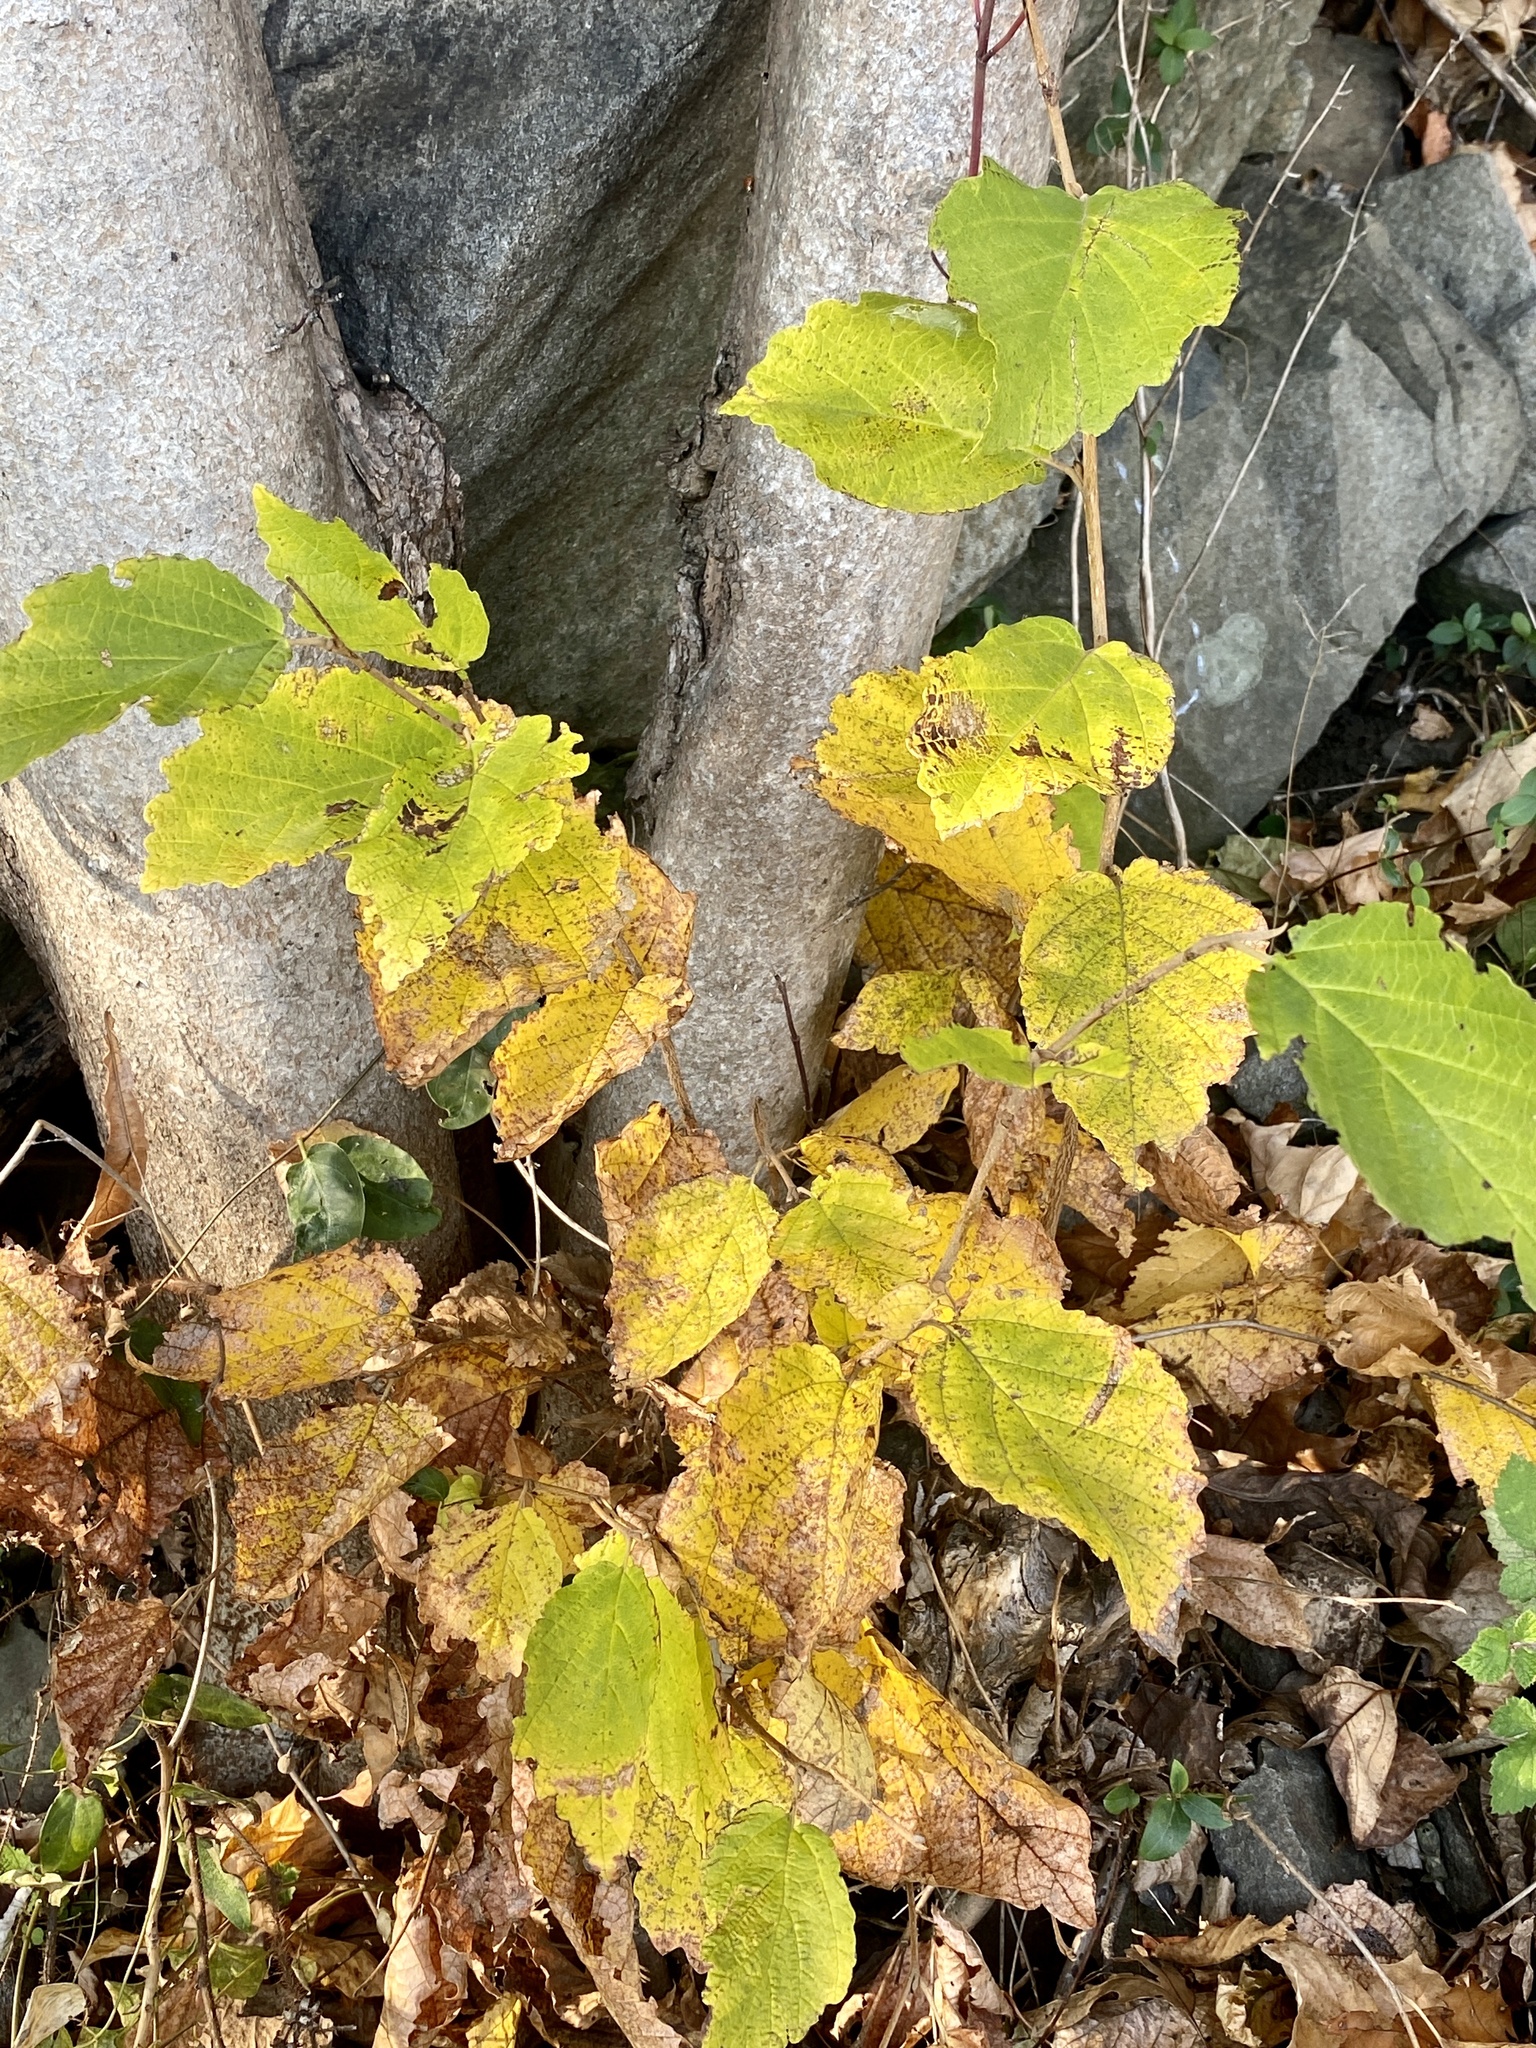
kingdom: Plantae
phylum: Tracheophyta
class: Magnoliopsida
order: Saxifragales
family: Hamamelidaceae
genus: Hamamelis
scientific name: Hamamelis virginiana
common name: Witch-hazel
